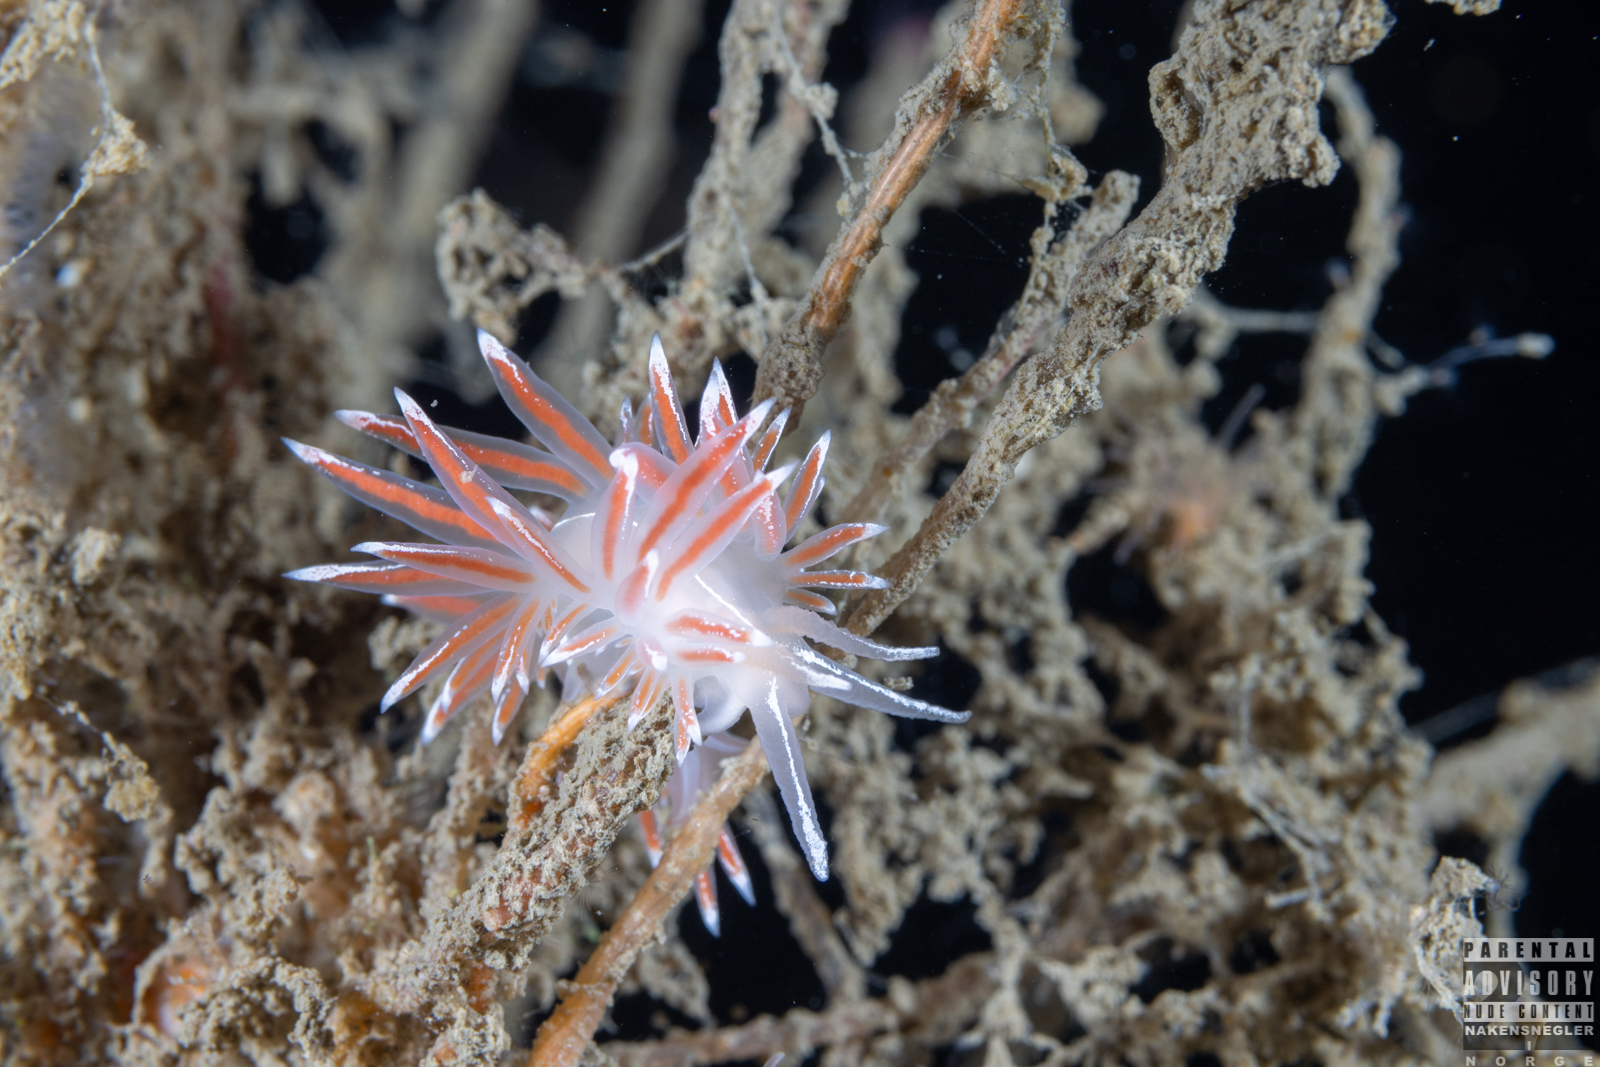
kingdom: Animalia
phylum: Mollusca
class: Gastropoda
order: Nudibranchia
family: Coryphellidae
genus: Coryphella
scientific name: Coryphella lineata
